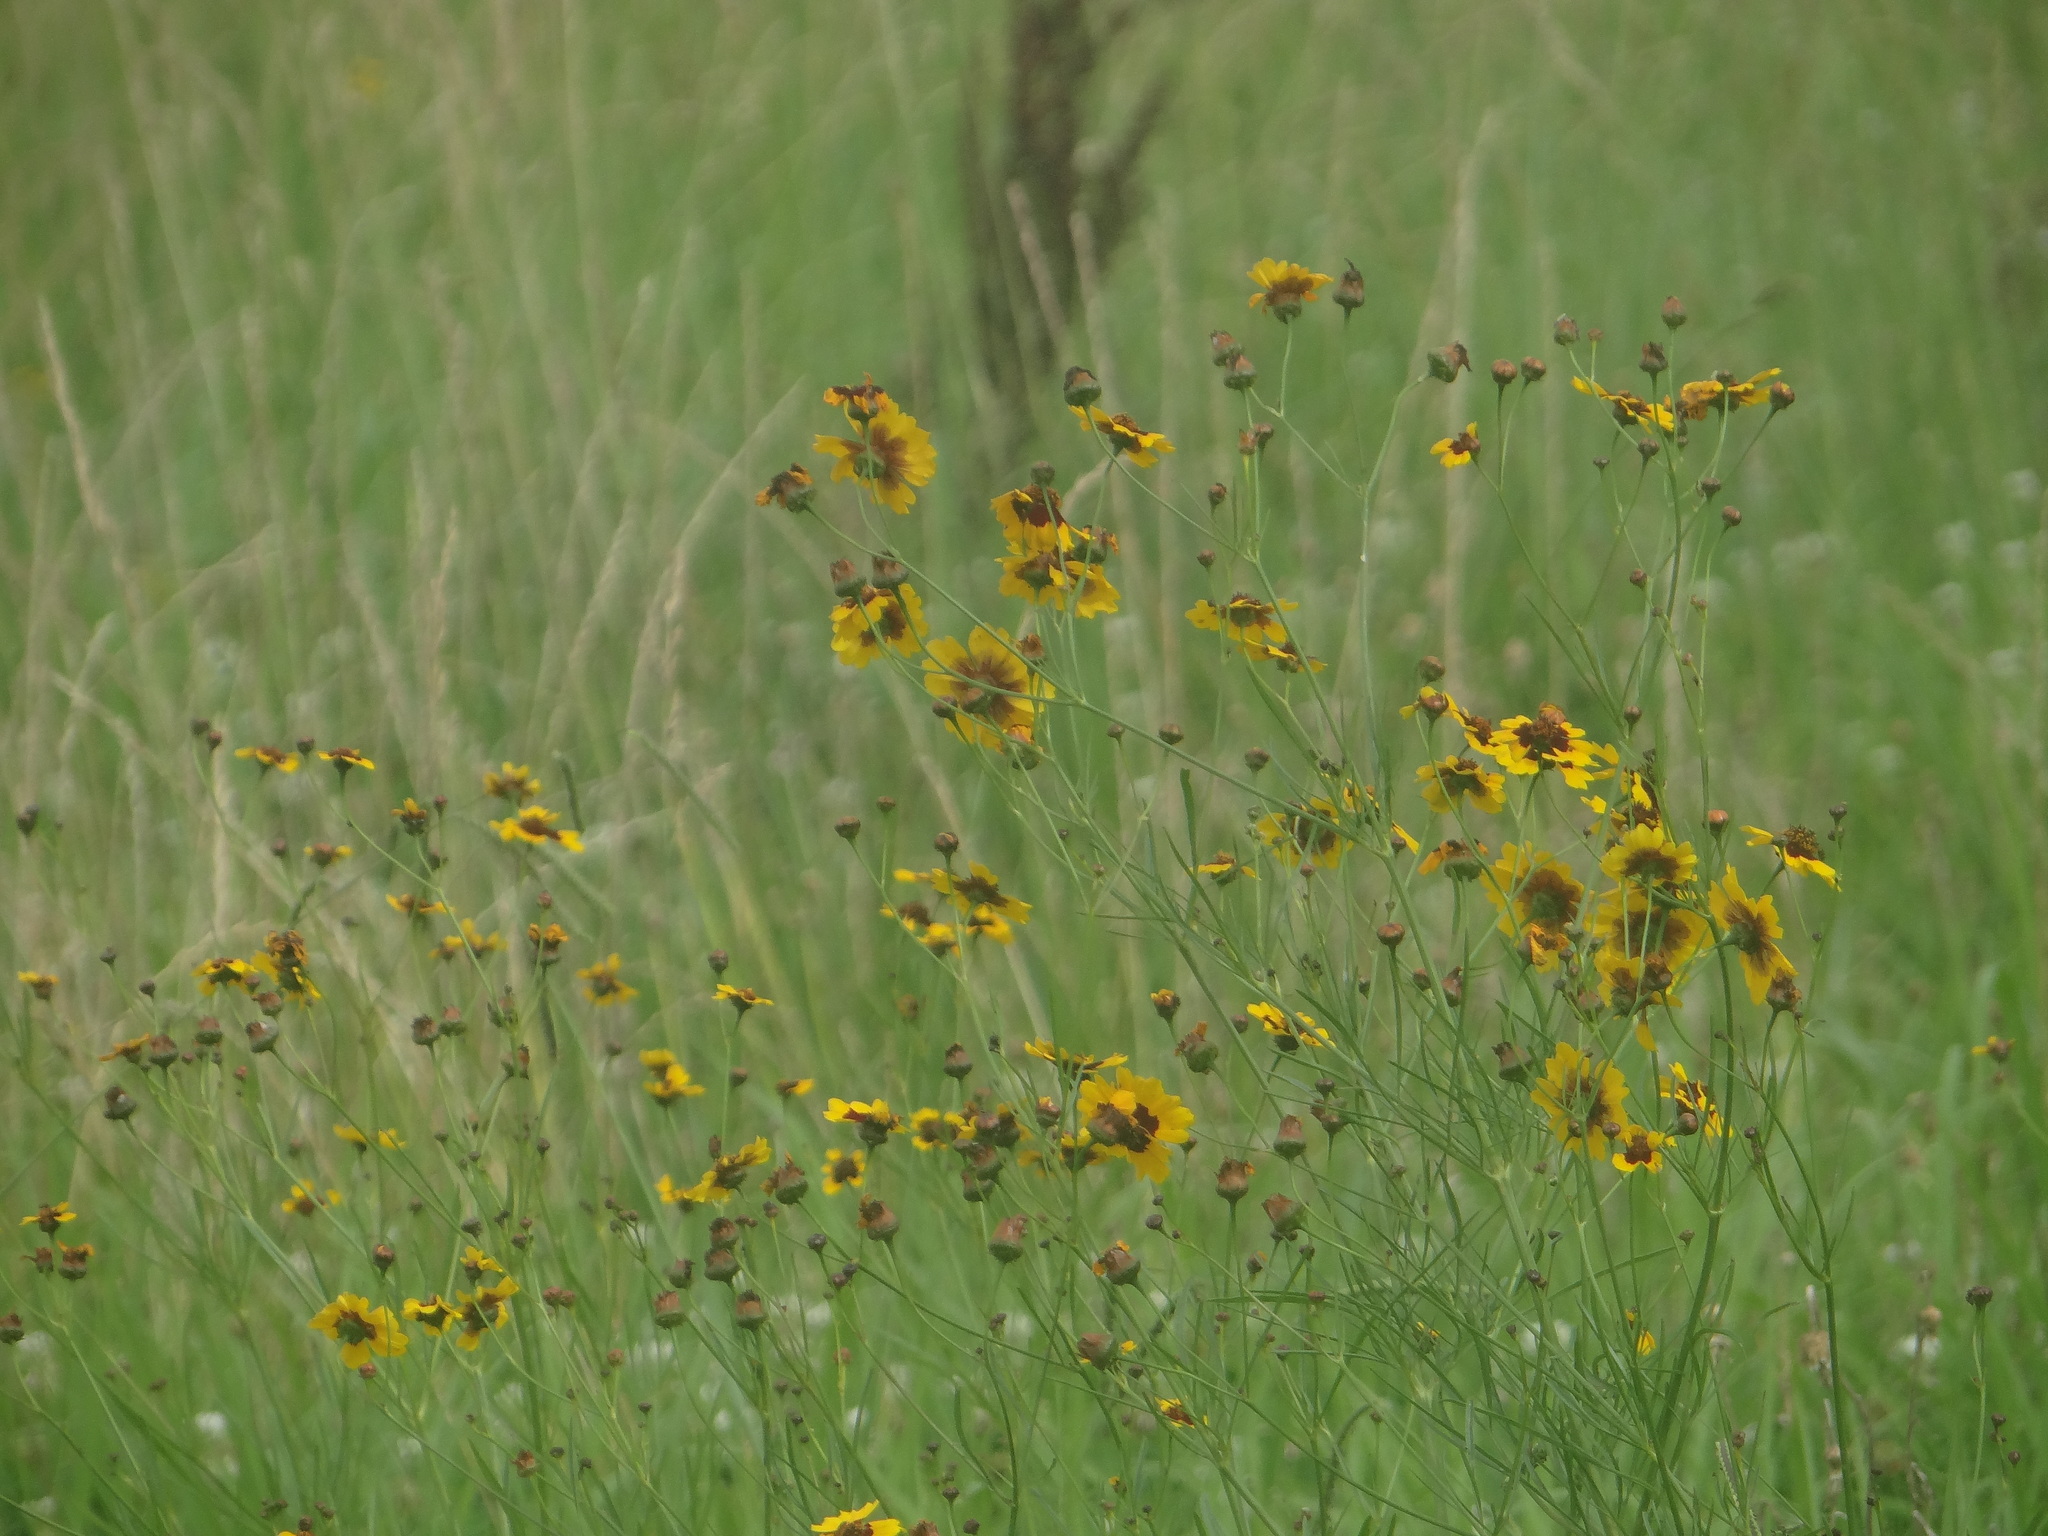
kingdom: Plantae
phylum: Tracheophyta
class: Magnoliopsida
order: Asterales
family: Asteraceae
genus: Coreopsis
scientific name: Coreopsis tinctoria
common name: Garden tickseed
